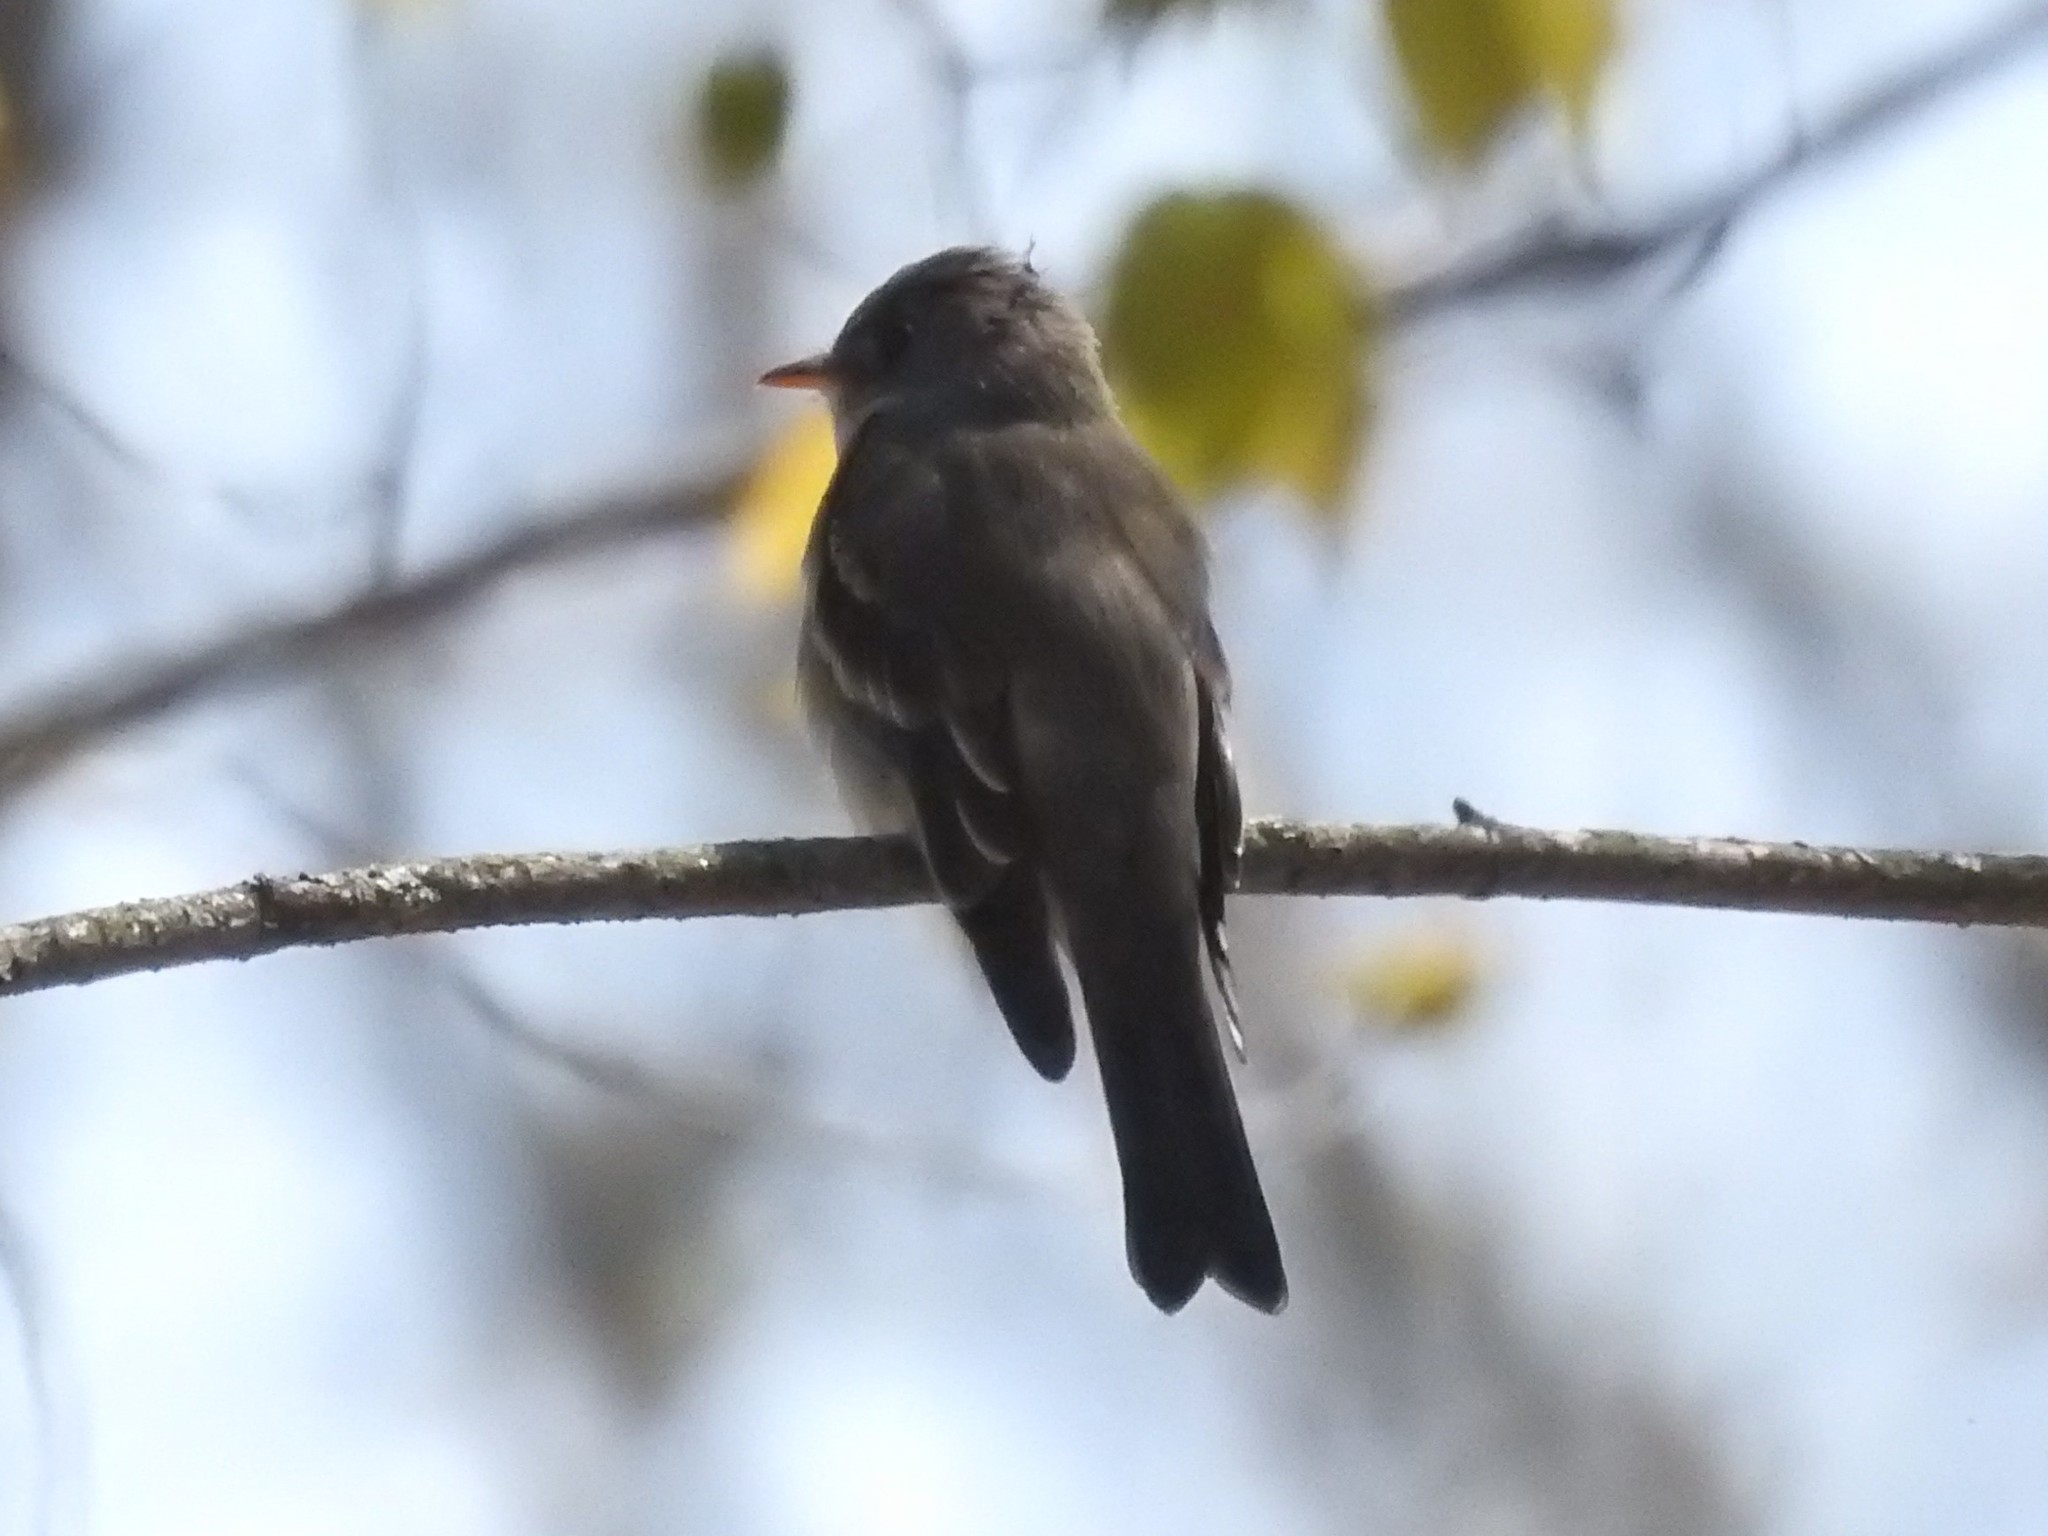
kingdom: Animalia
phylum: Chordata
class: Aves
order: Passeriformes
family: Tyrannidae
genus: Contopus
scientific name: Contopus virens
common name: Eastern wood-pewee
